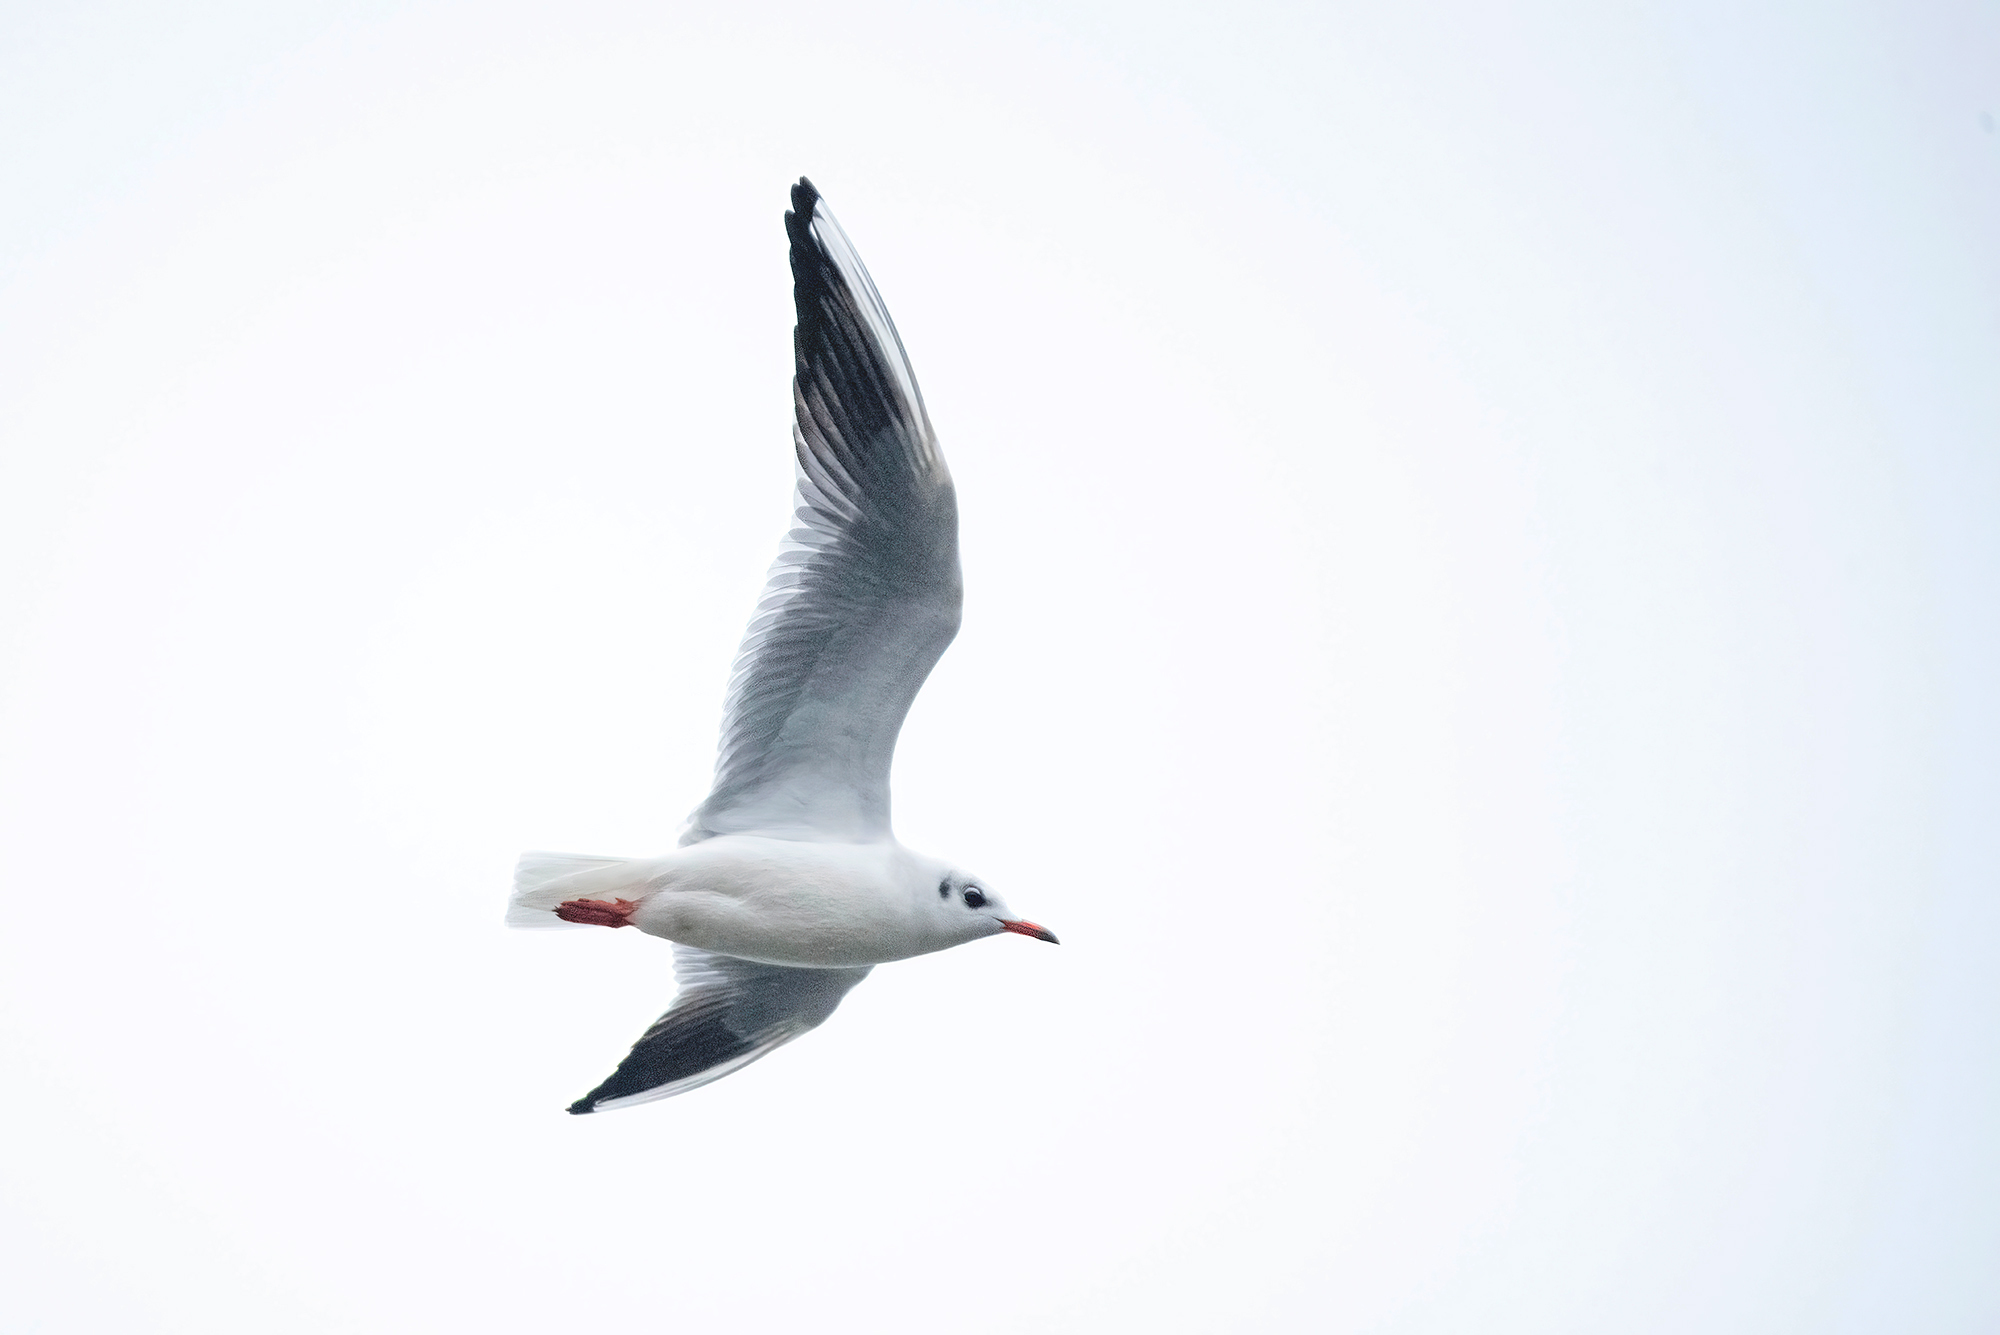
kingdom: Animalia
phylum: Chordata
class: Aves
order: Charadriiformes
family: Laridae
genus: Chroicocephalus
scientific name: Chroicocephalus ridibundus
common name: Black-headed gull
